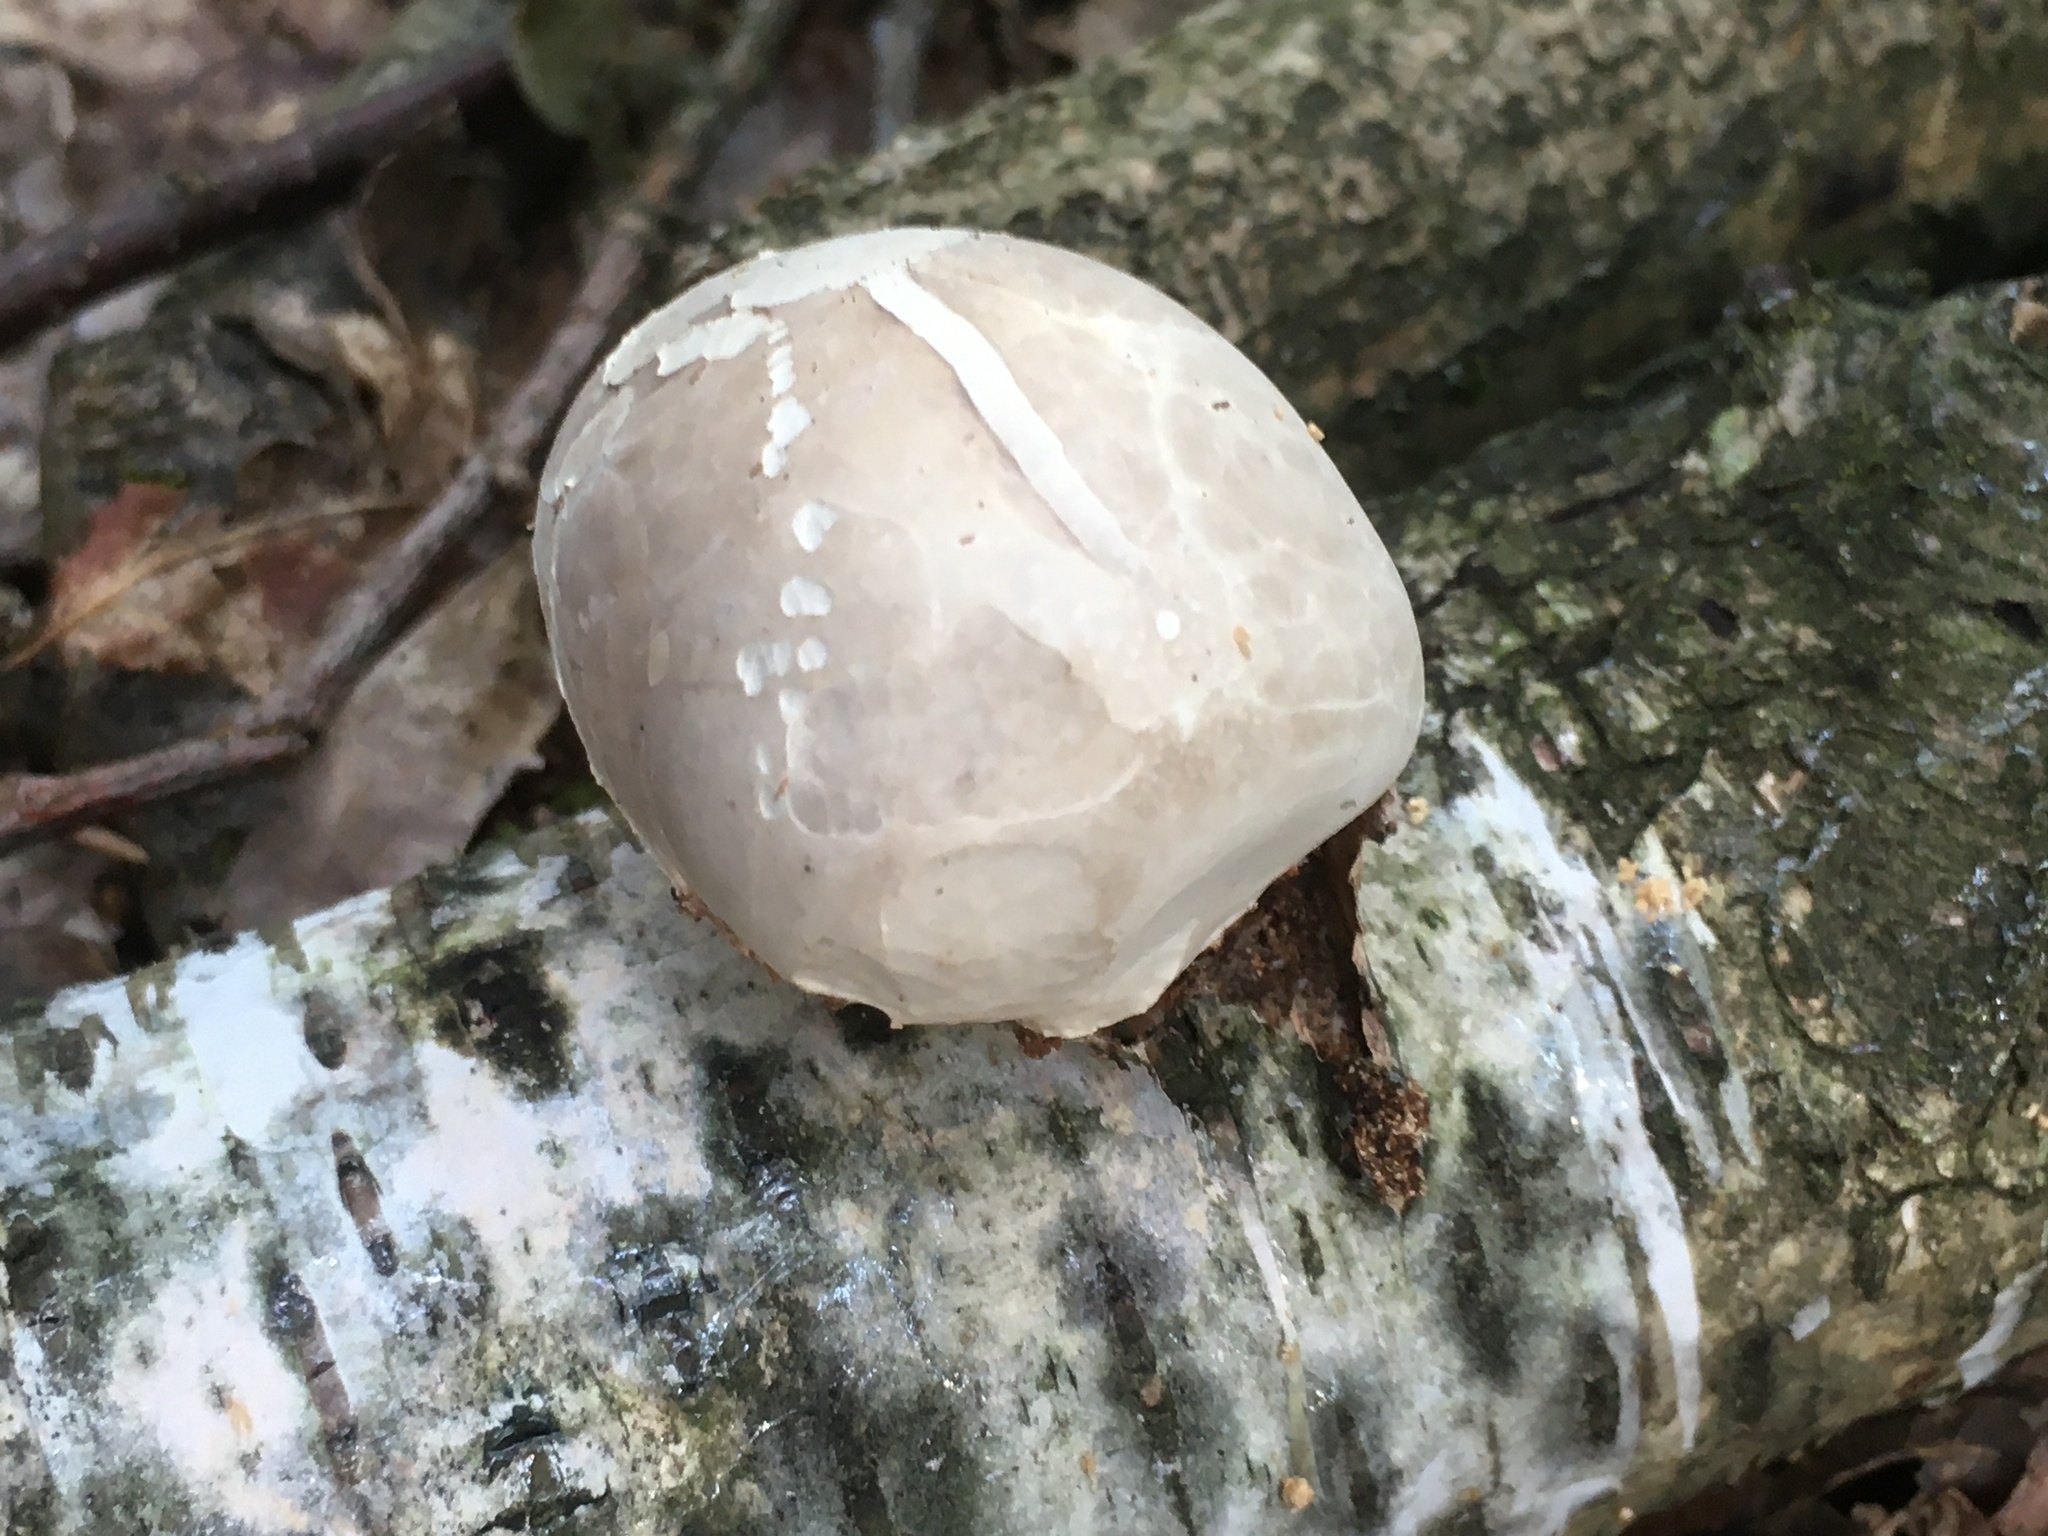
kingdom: Fungi
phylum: Basidiomycota
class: Agaricomycetes
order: Polyporales
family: Fomitopsidaceae
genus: Fomitopsis
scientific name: Fomitopsis betulina
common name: Birch polypore
